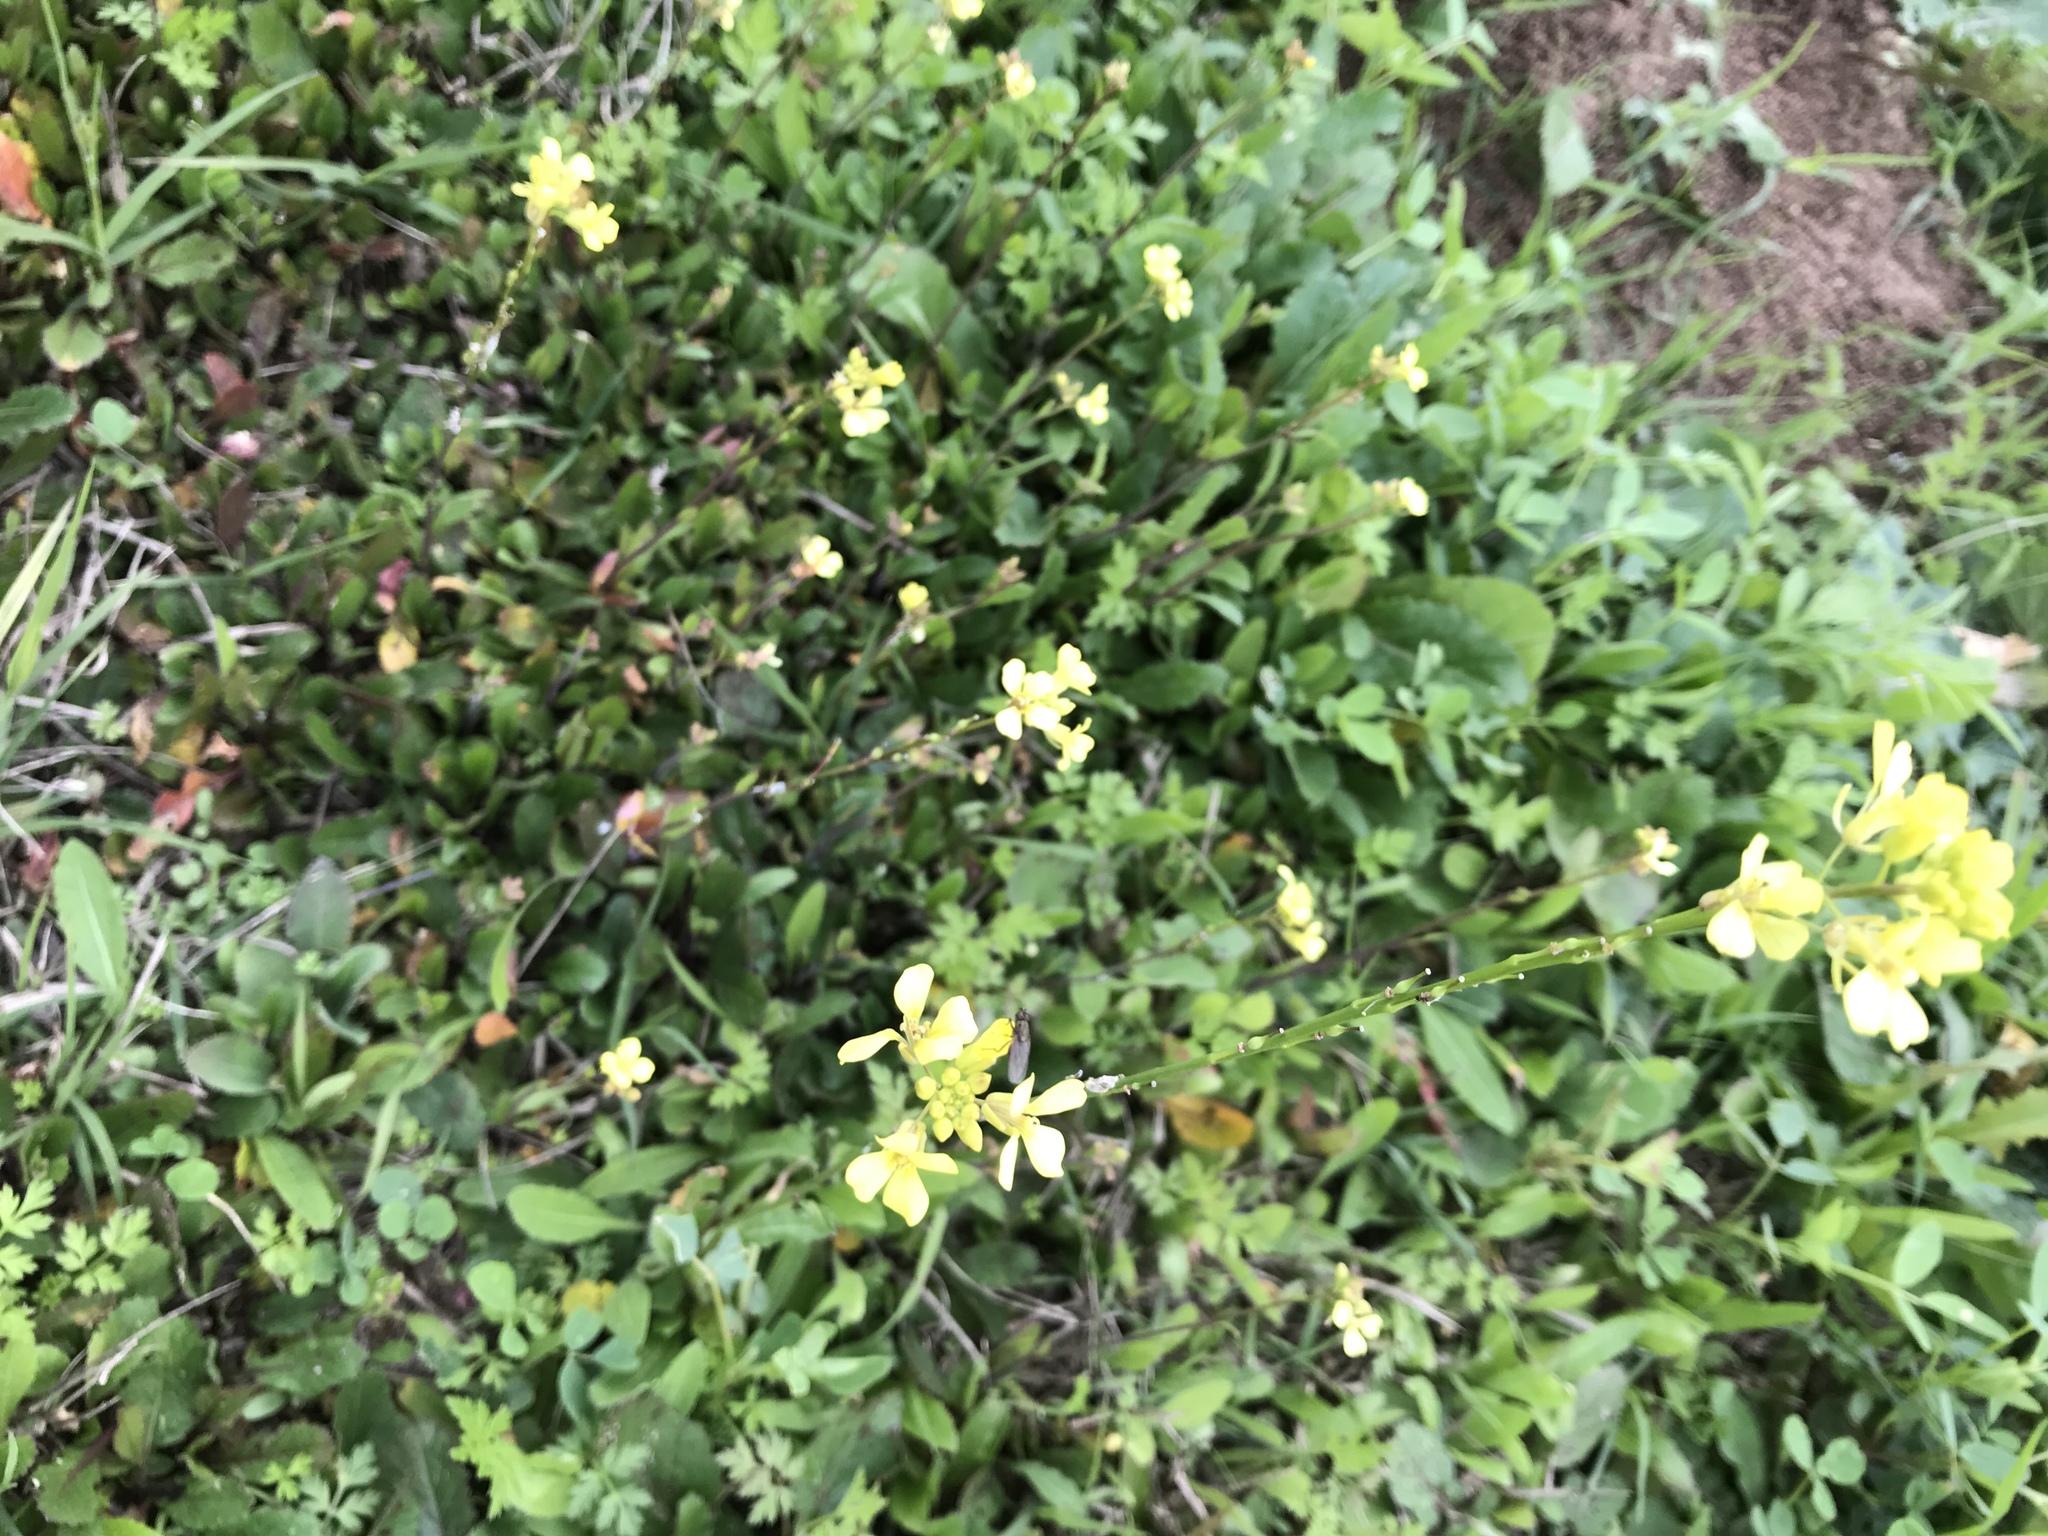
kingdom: Plantae
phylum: Tracheophyta
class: Magnoliopsida
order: Brassicales
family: Brassicaceae
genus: Rapistrum
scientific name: Rapistrum rugosum
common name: Annual bastardcabbage
